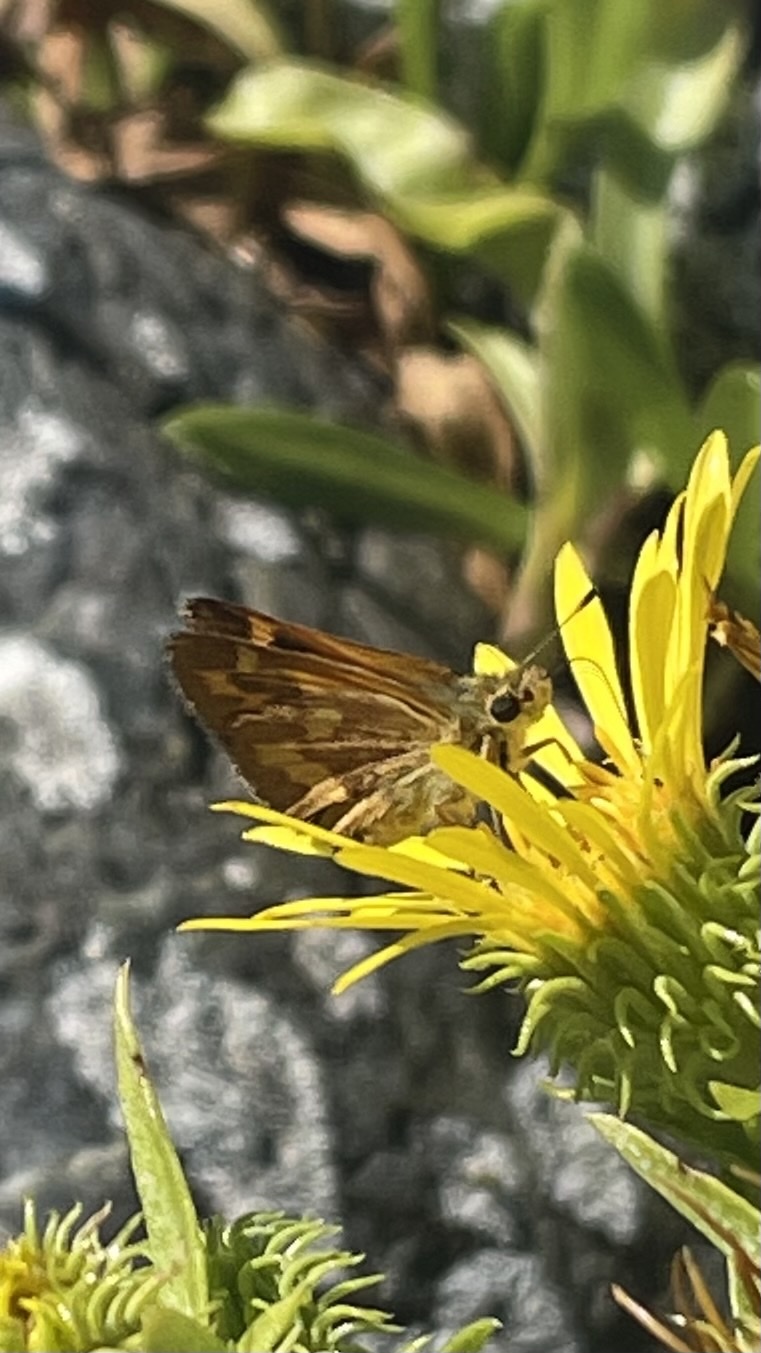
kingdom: Animalia
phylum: Arthropoda
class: Insecta
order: Lepidoptera
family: Hesperiidae
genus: Ochlodes
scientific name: Ochlodes sylvanoides
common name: Woodland skipper
